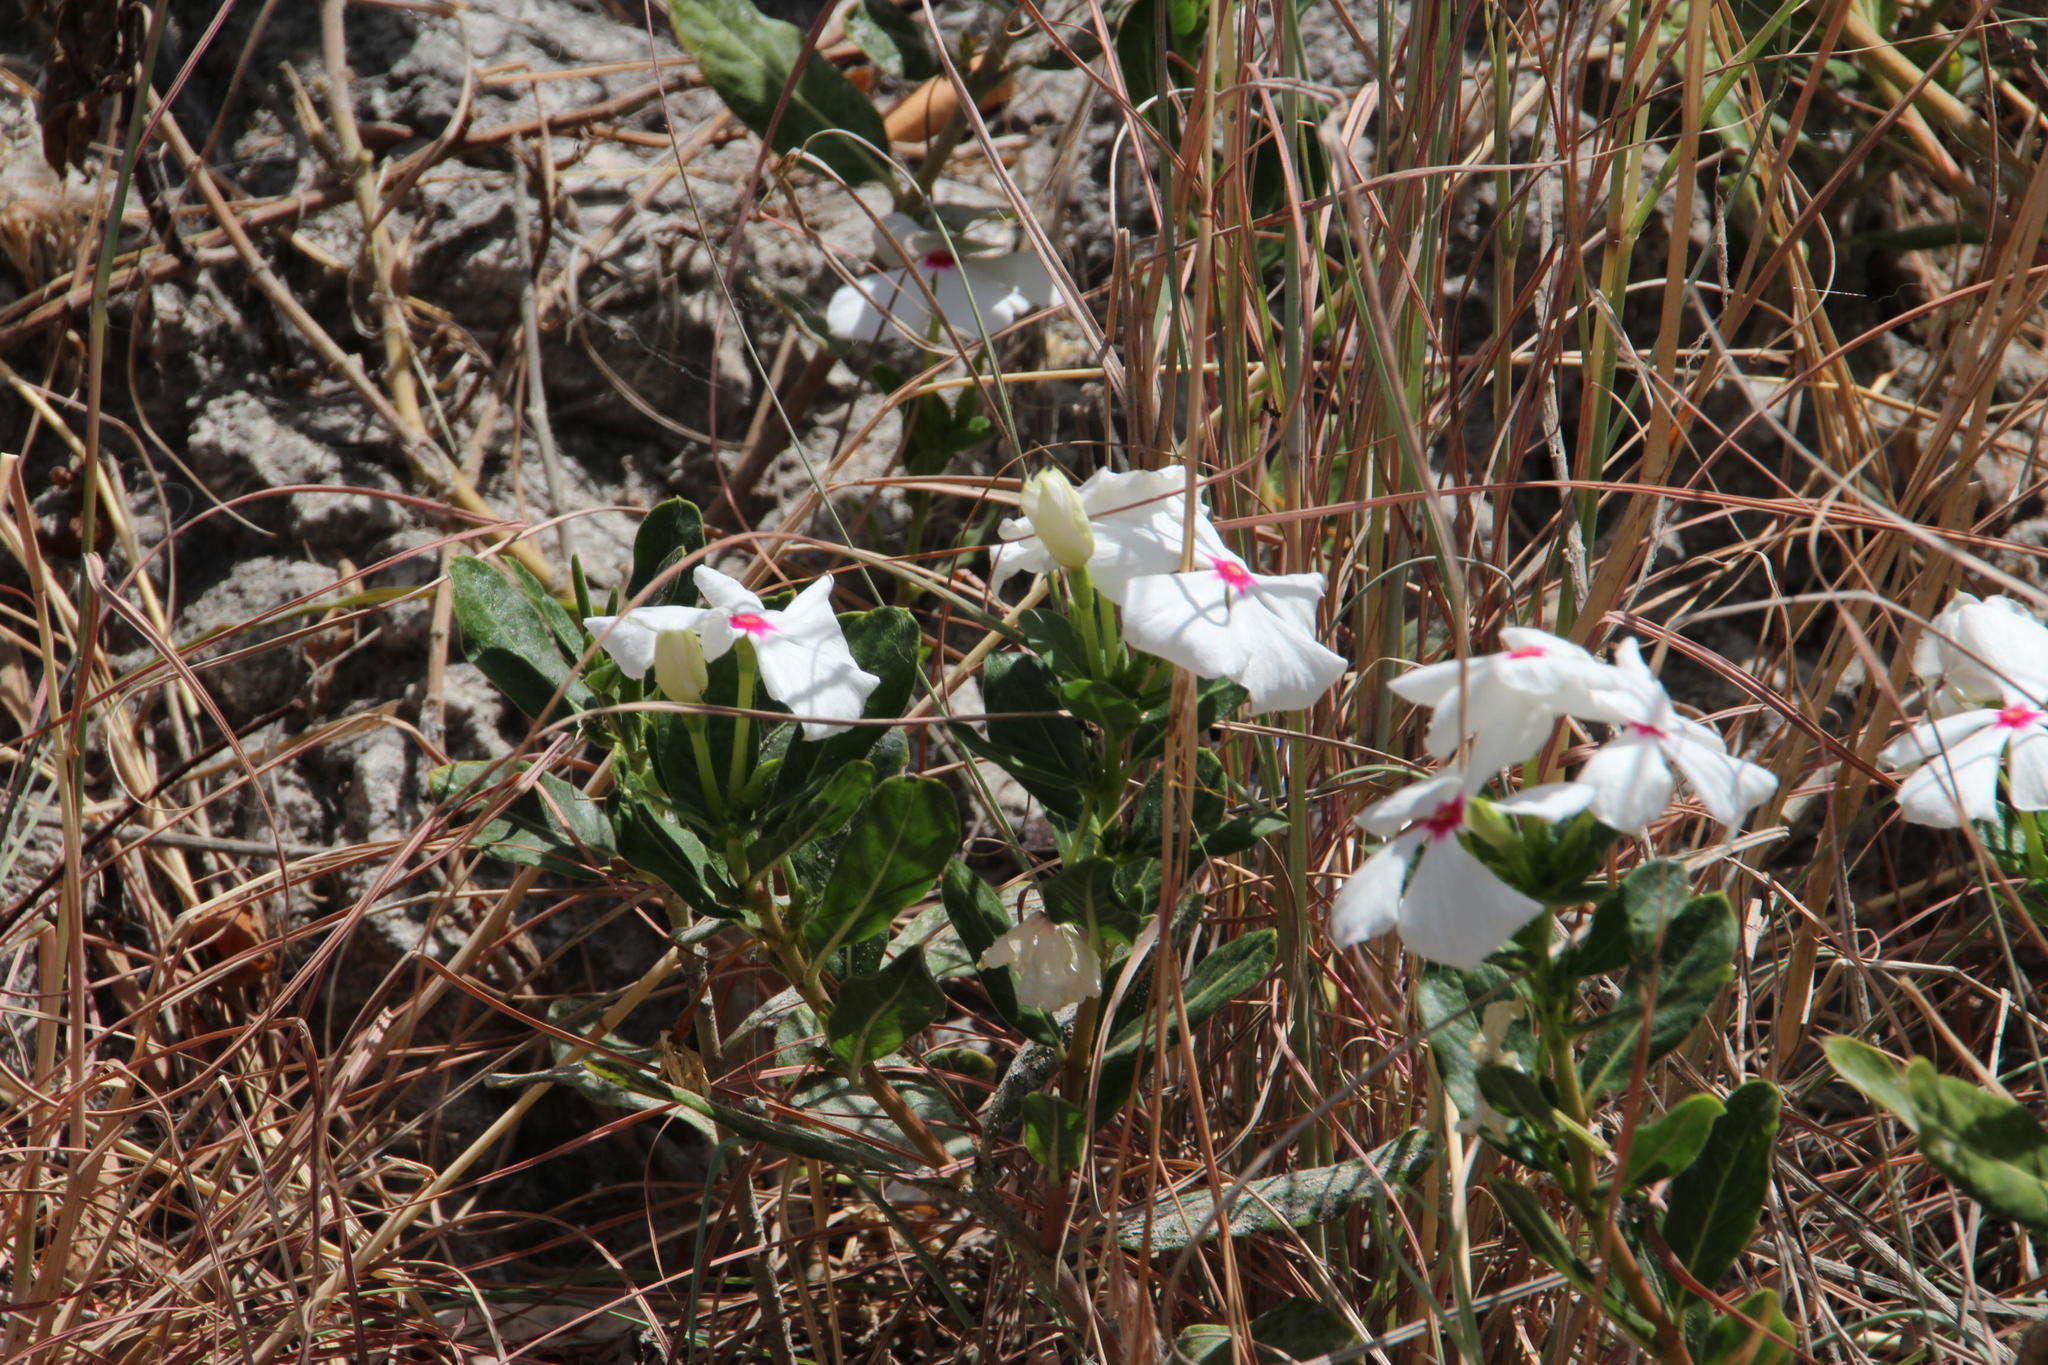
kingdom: Plantae
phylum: Tracheophyta
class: Magnoliopsida
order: Gentianales
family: Apocynaceae
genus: Catharanthus
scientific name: Catharanthus roseus
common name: Madagascar periwinkle
